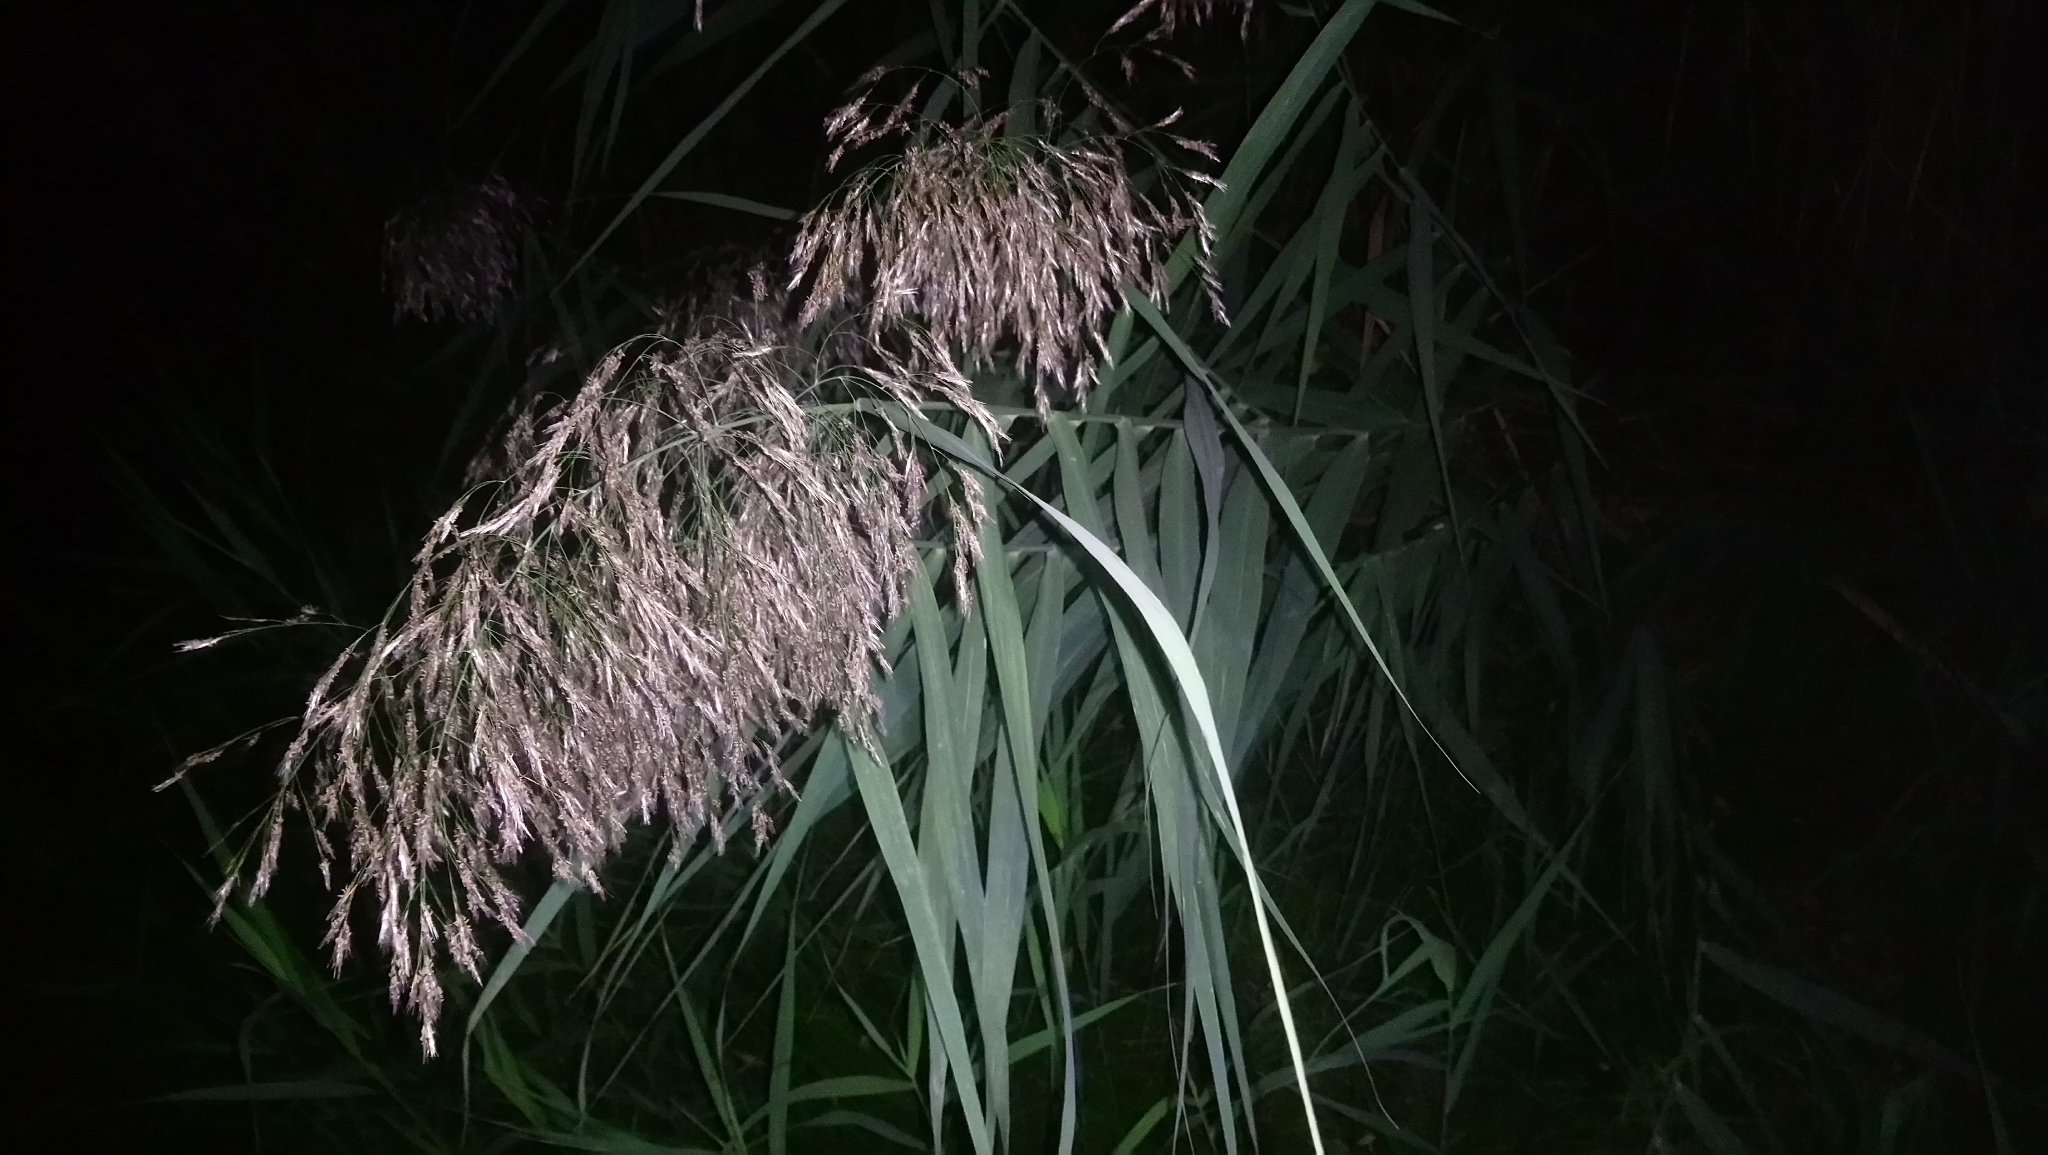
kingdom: Plantae
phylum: Tracheophyta
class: Liliopsida
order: Poales
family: Poaceae
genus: Phragmites
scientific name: Phragmites australis
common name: Common reed
